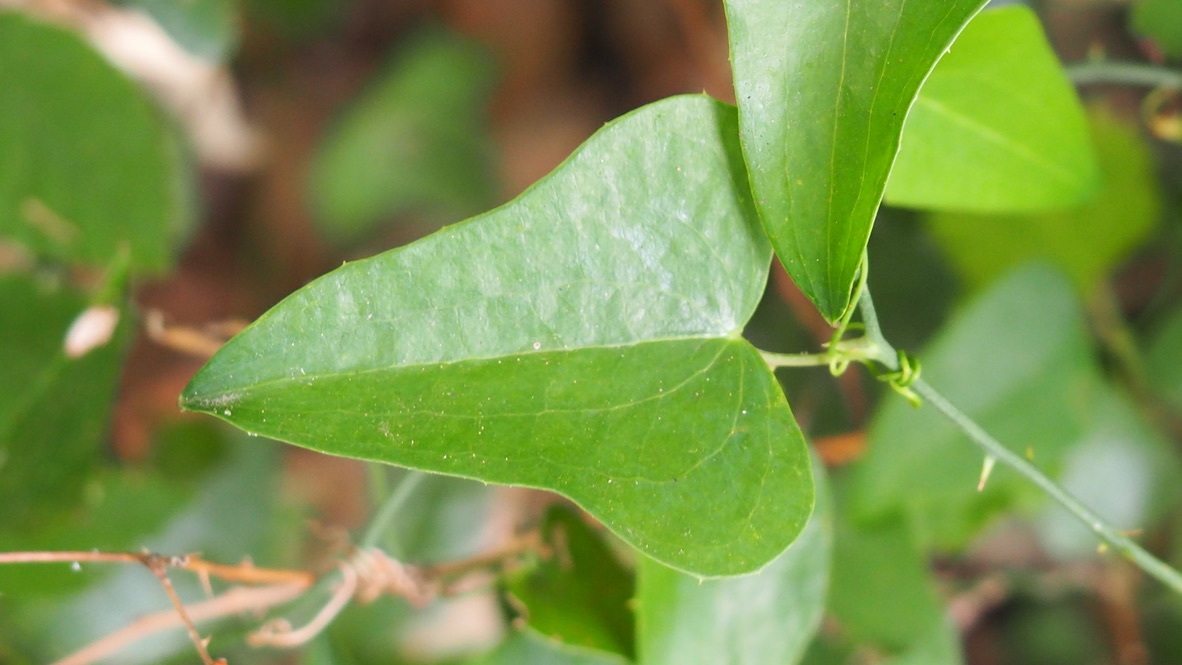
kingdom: Plantae
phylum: Tracheophyta
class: Liliopsida
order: Liliales
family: Smilacaceae
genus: Smilax
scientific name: Smilax aspera
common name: Common smilax
